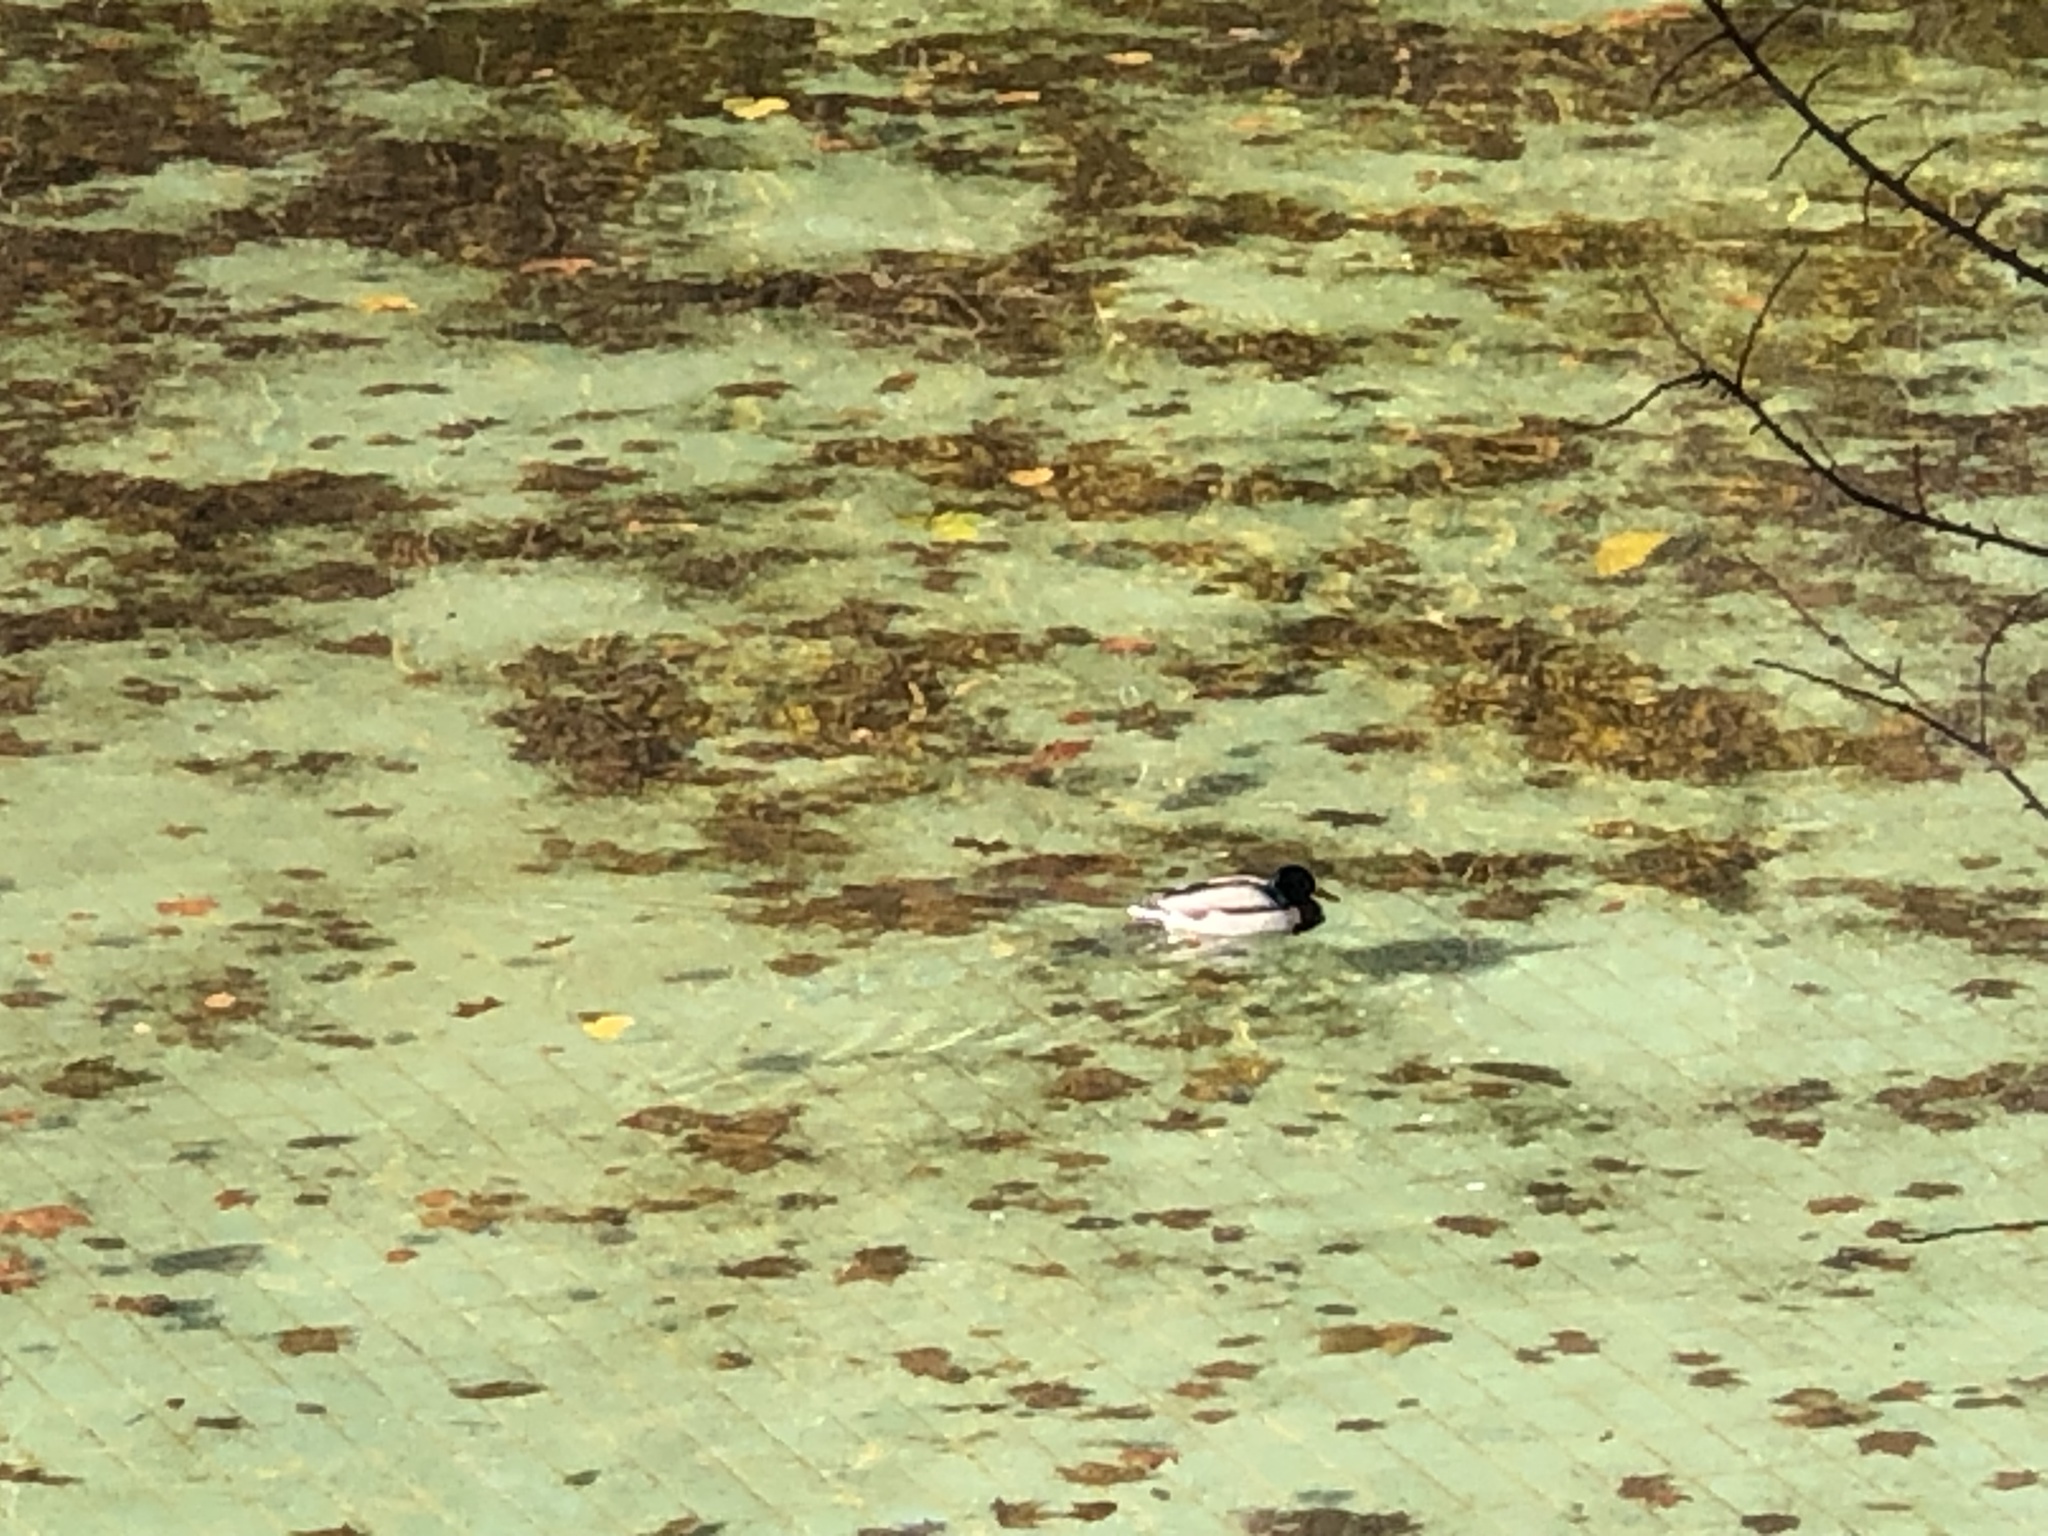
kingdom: Animalia
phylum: Chordata
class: Aves
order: Anseriformes
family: Anatidae
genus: Anas
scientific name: Anas platyrhynchos
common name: Mallard
